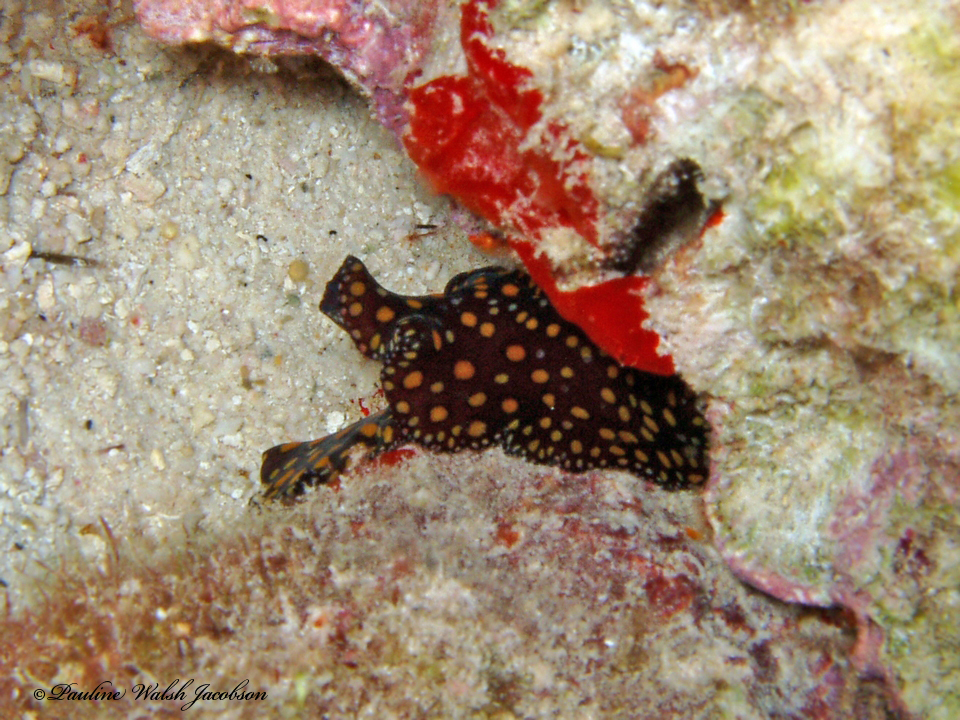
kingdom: Animalia
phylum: Platyhelminthes
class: Turbellaria
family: Pseudocerotidae
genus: Pseudobiceros
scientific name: Pseudobiceros pardalis
